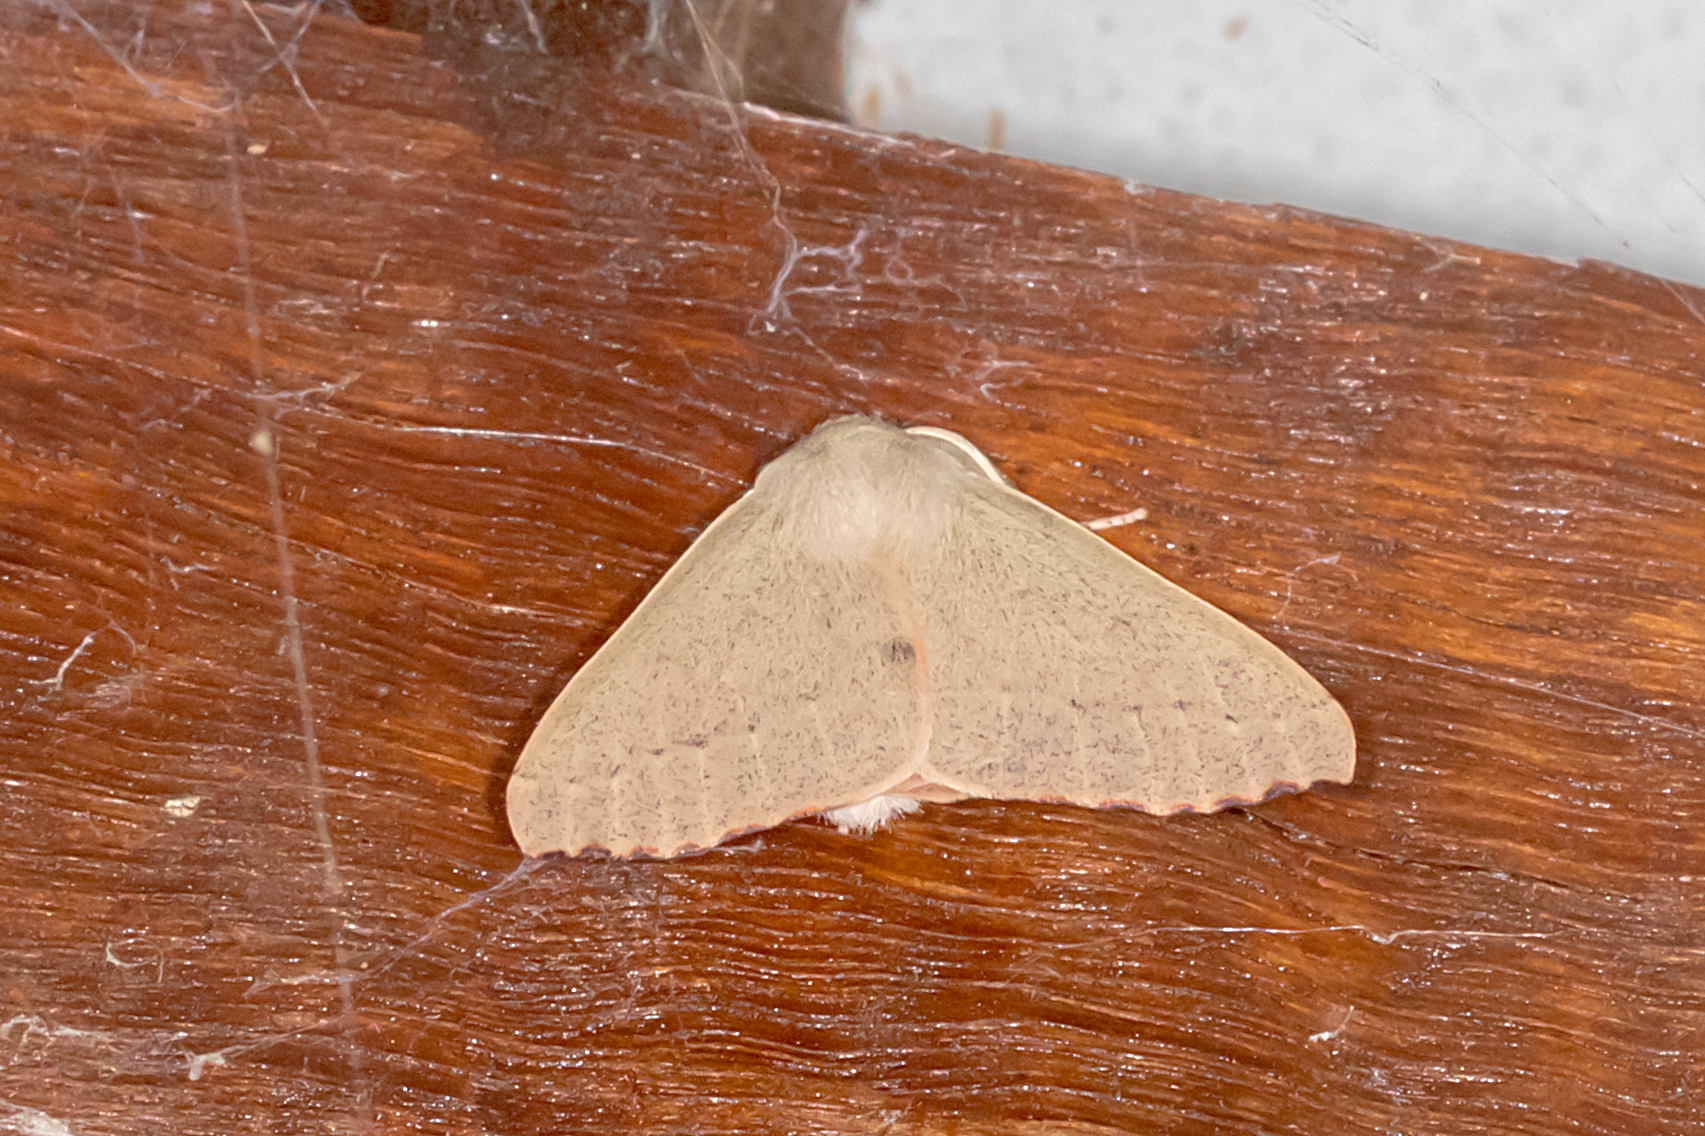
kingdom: Animalia
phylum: Arthropoda
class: Insecta
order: Lepidoptera
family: Geometridae
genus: Arhodia
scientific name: Arhodia lasiocamparia
